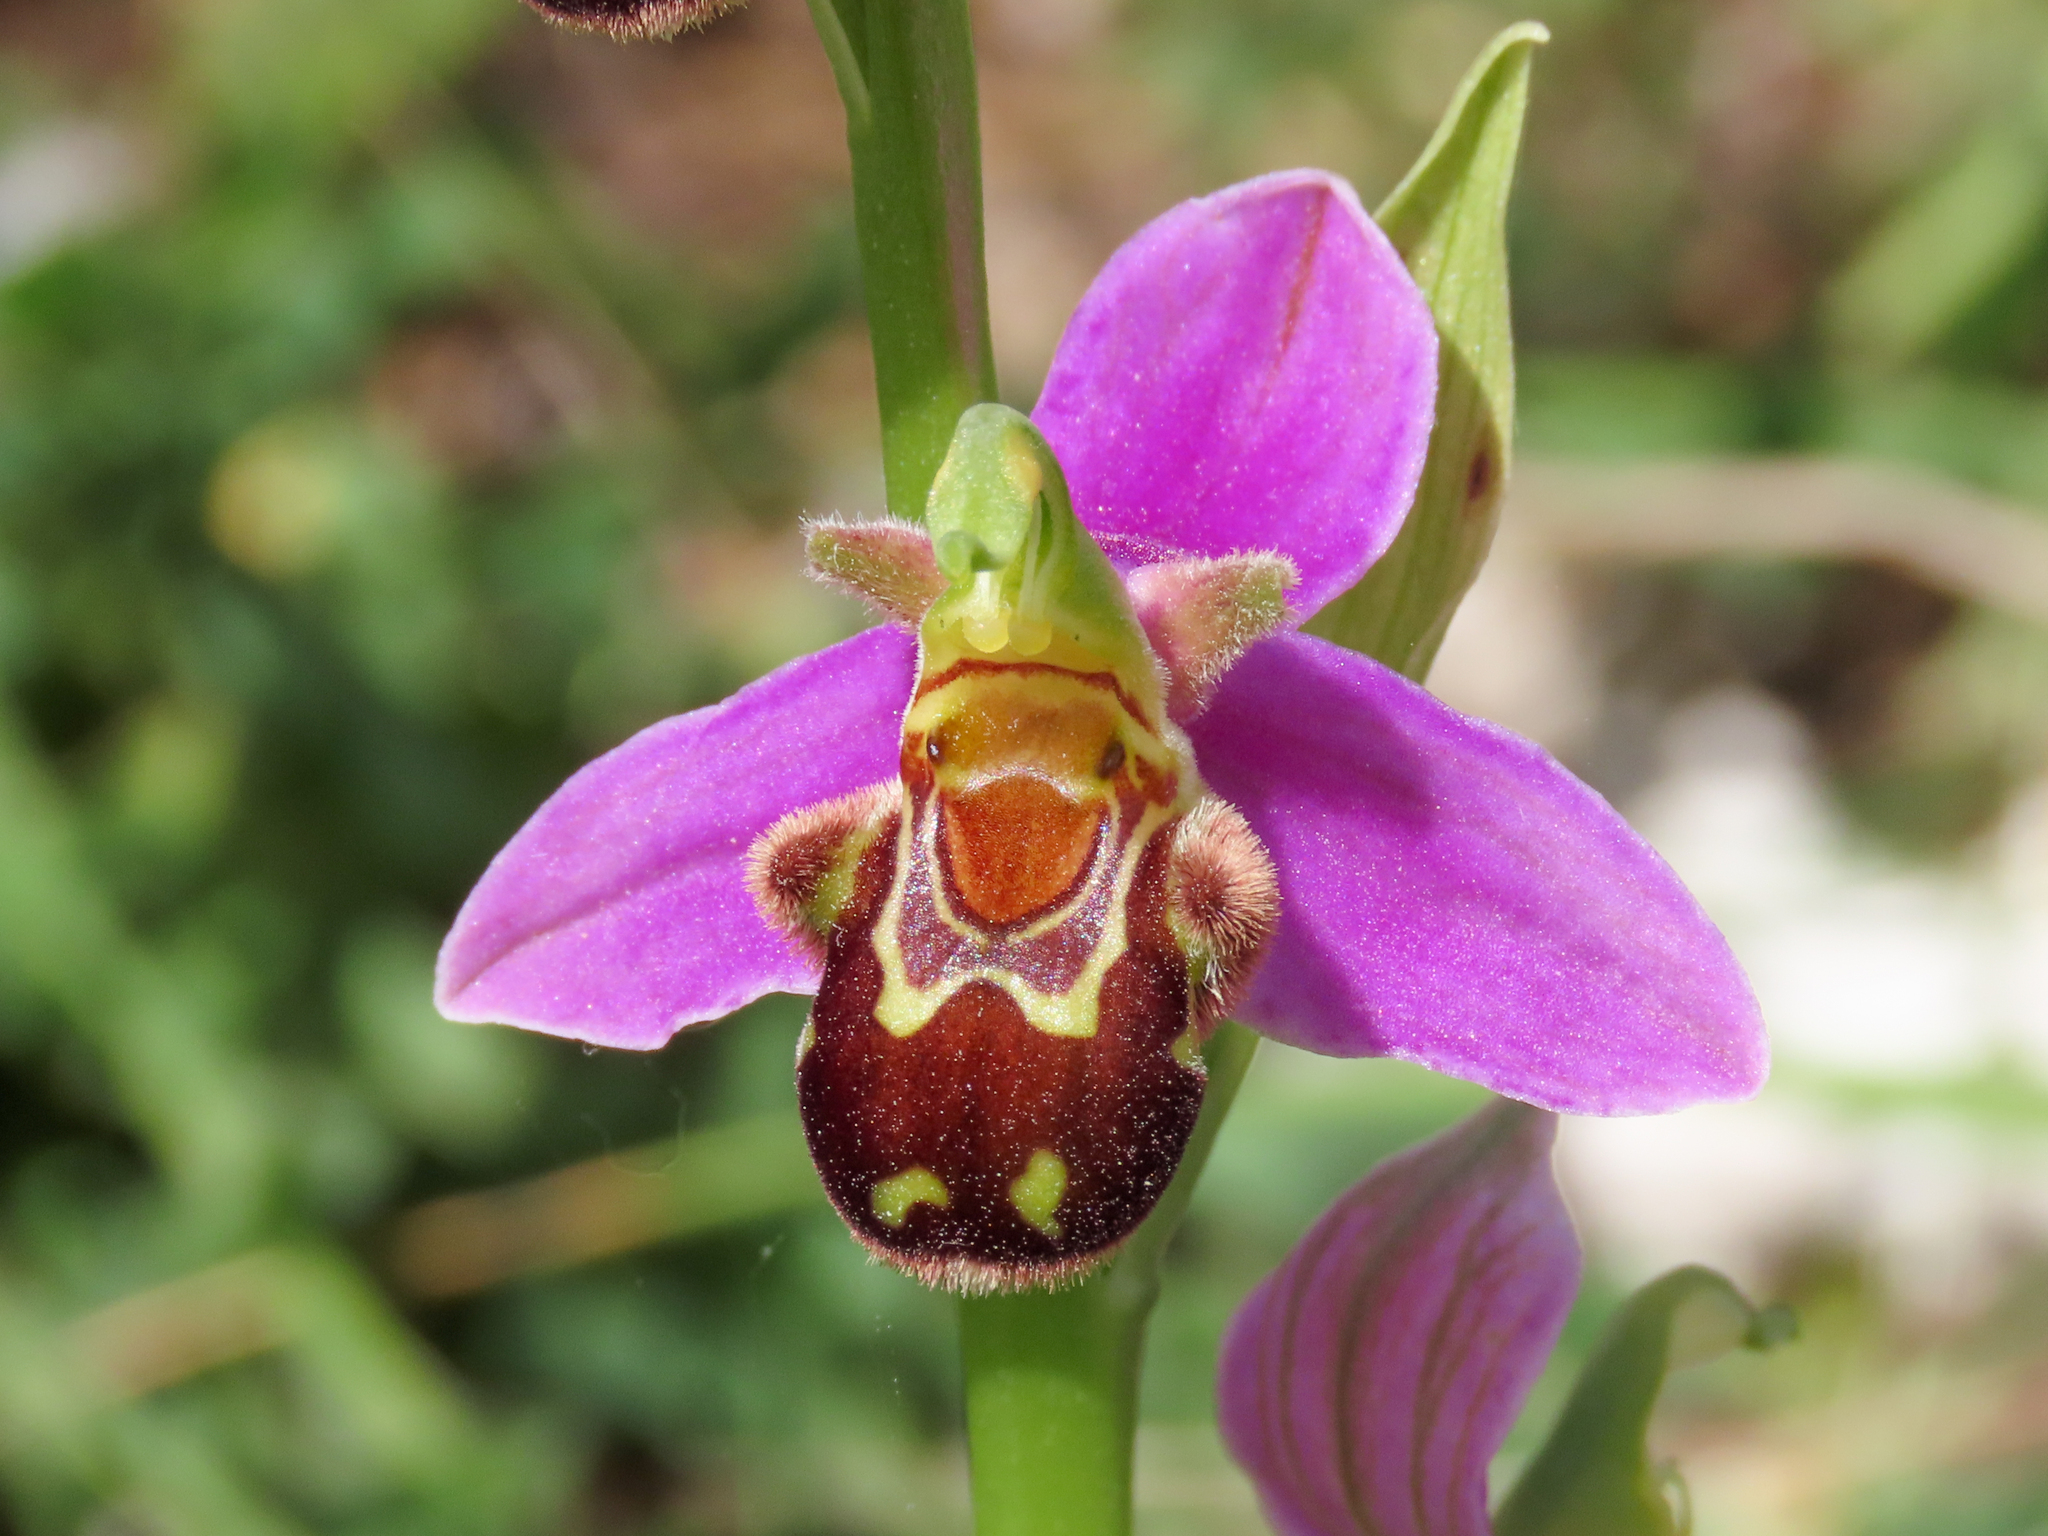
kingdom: Plantae
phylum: Tracheophyta
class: Liliopsida
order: Asparagales
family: Orchidaceae
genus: Ophrys
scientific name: Ophrys apifera
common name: Bee orchid
